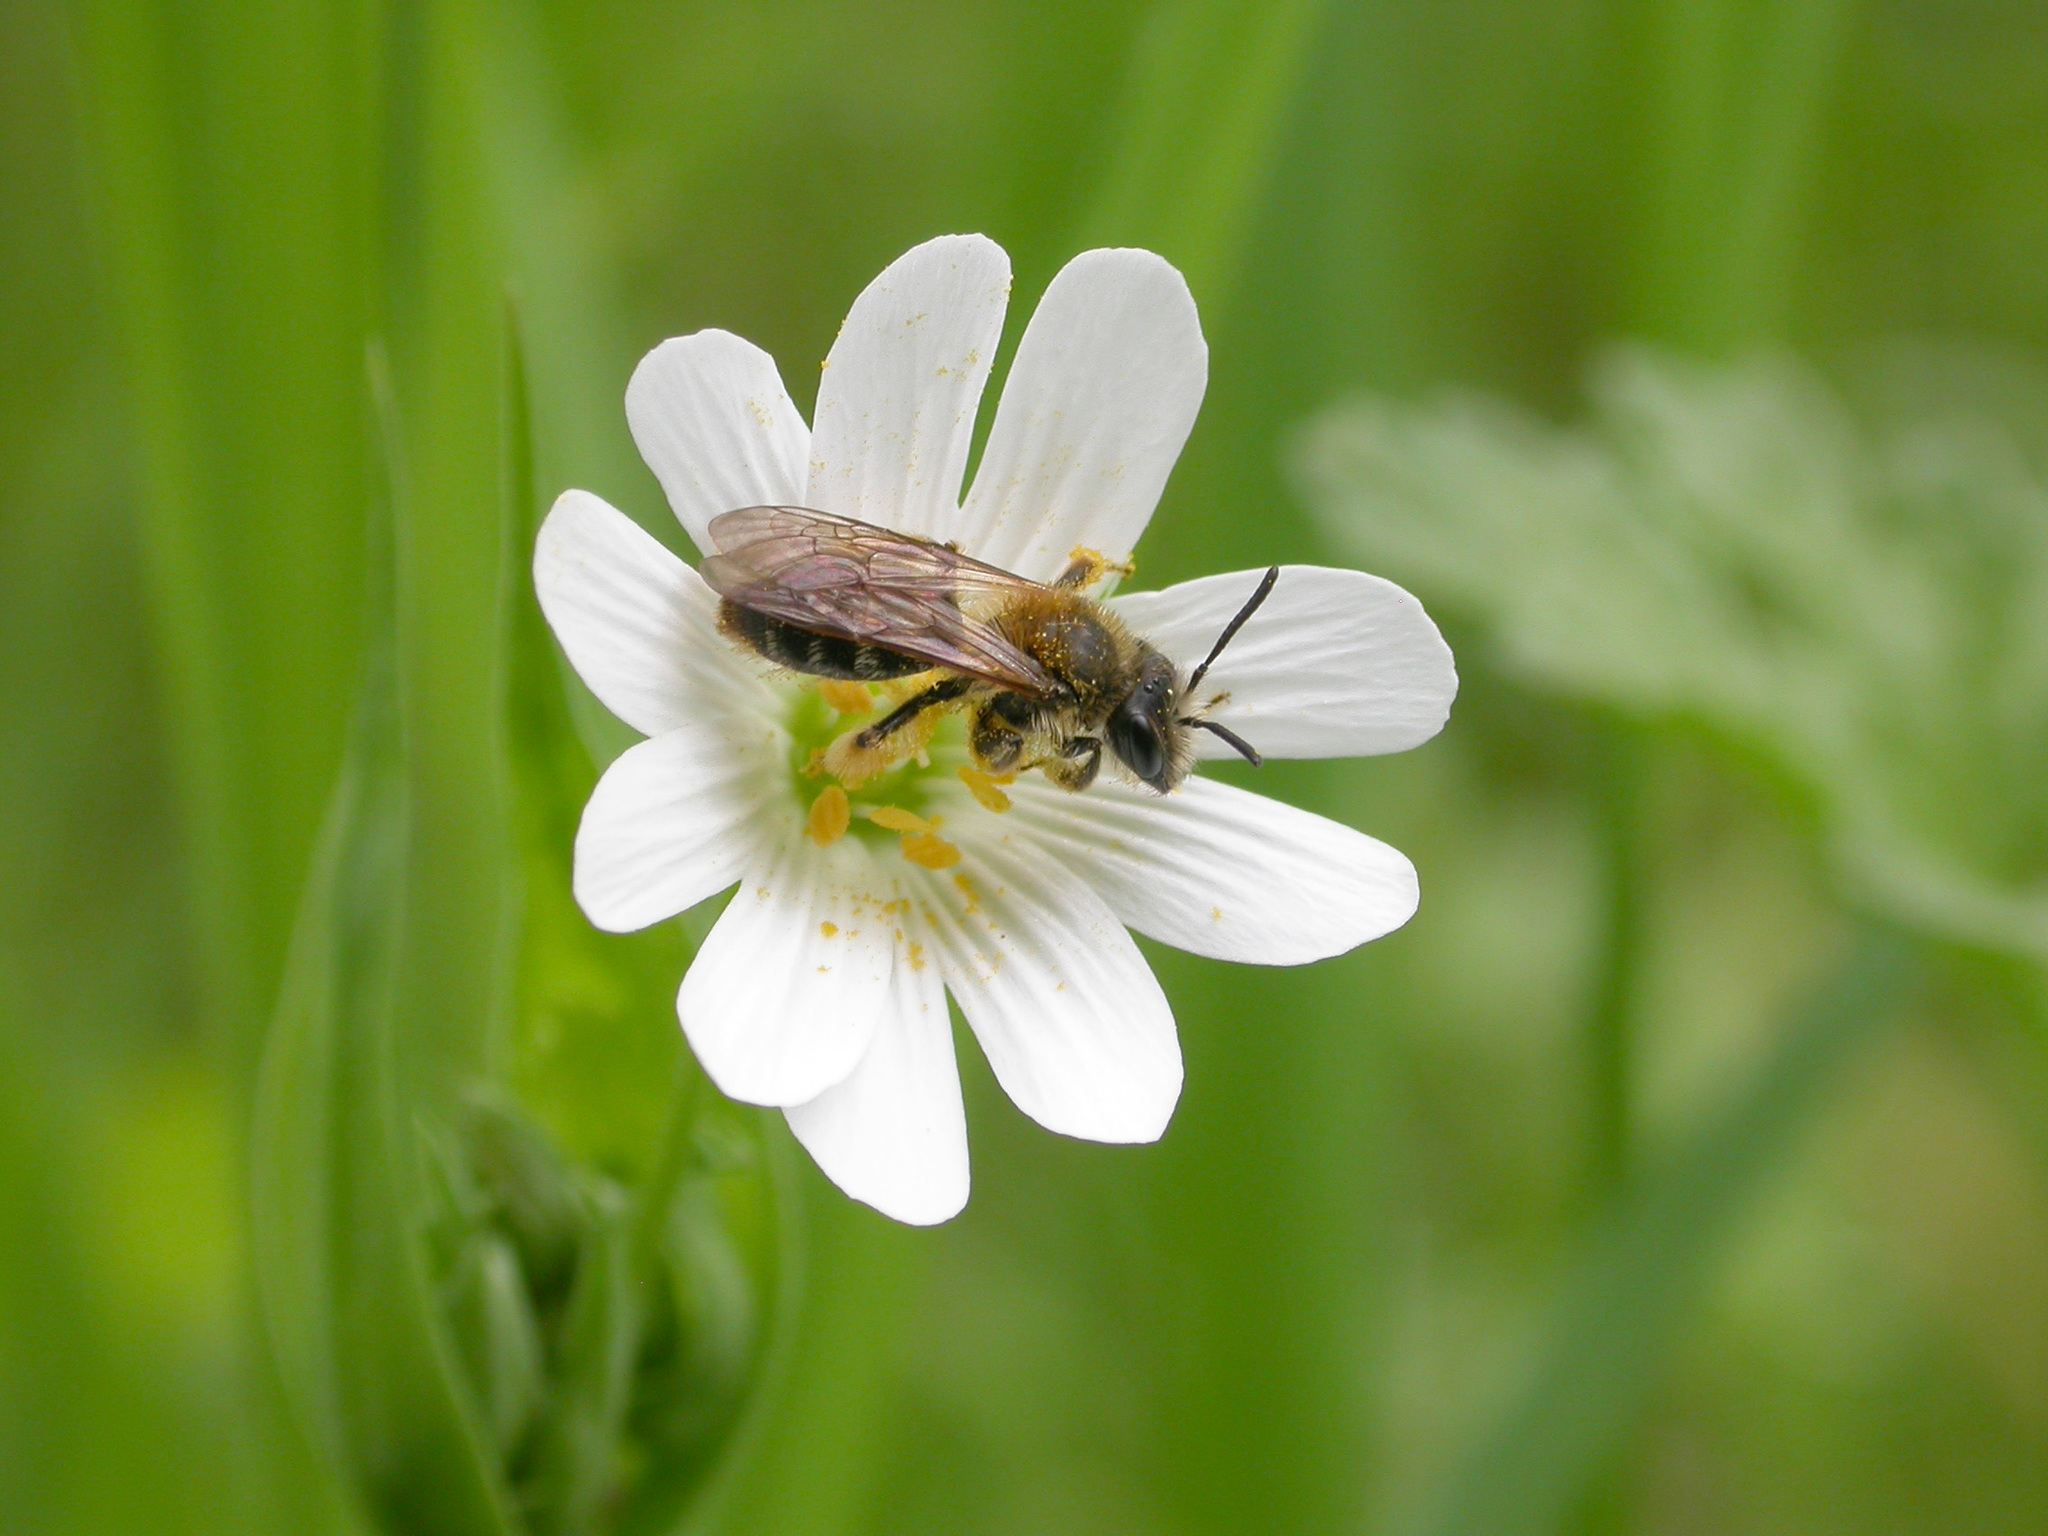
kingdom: Animalia
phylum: Arthropoda
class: Insecta
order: Hymenoptera
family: Andrenidae
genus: Andrena
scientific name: Andrena haemorrhoa
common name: Early mining bee
